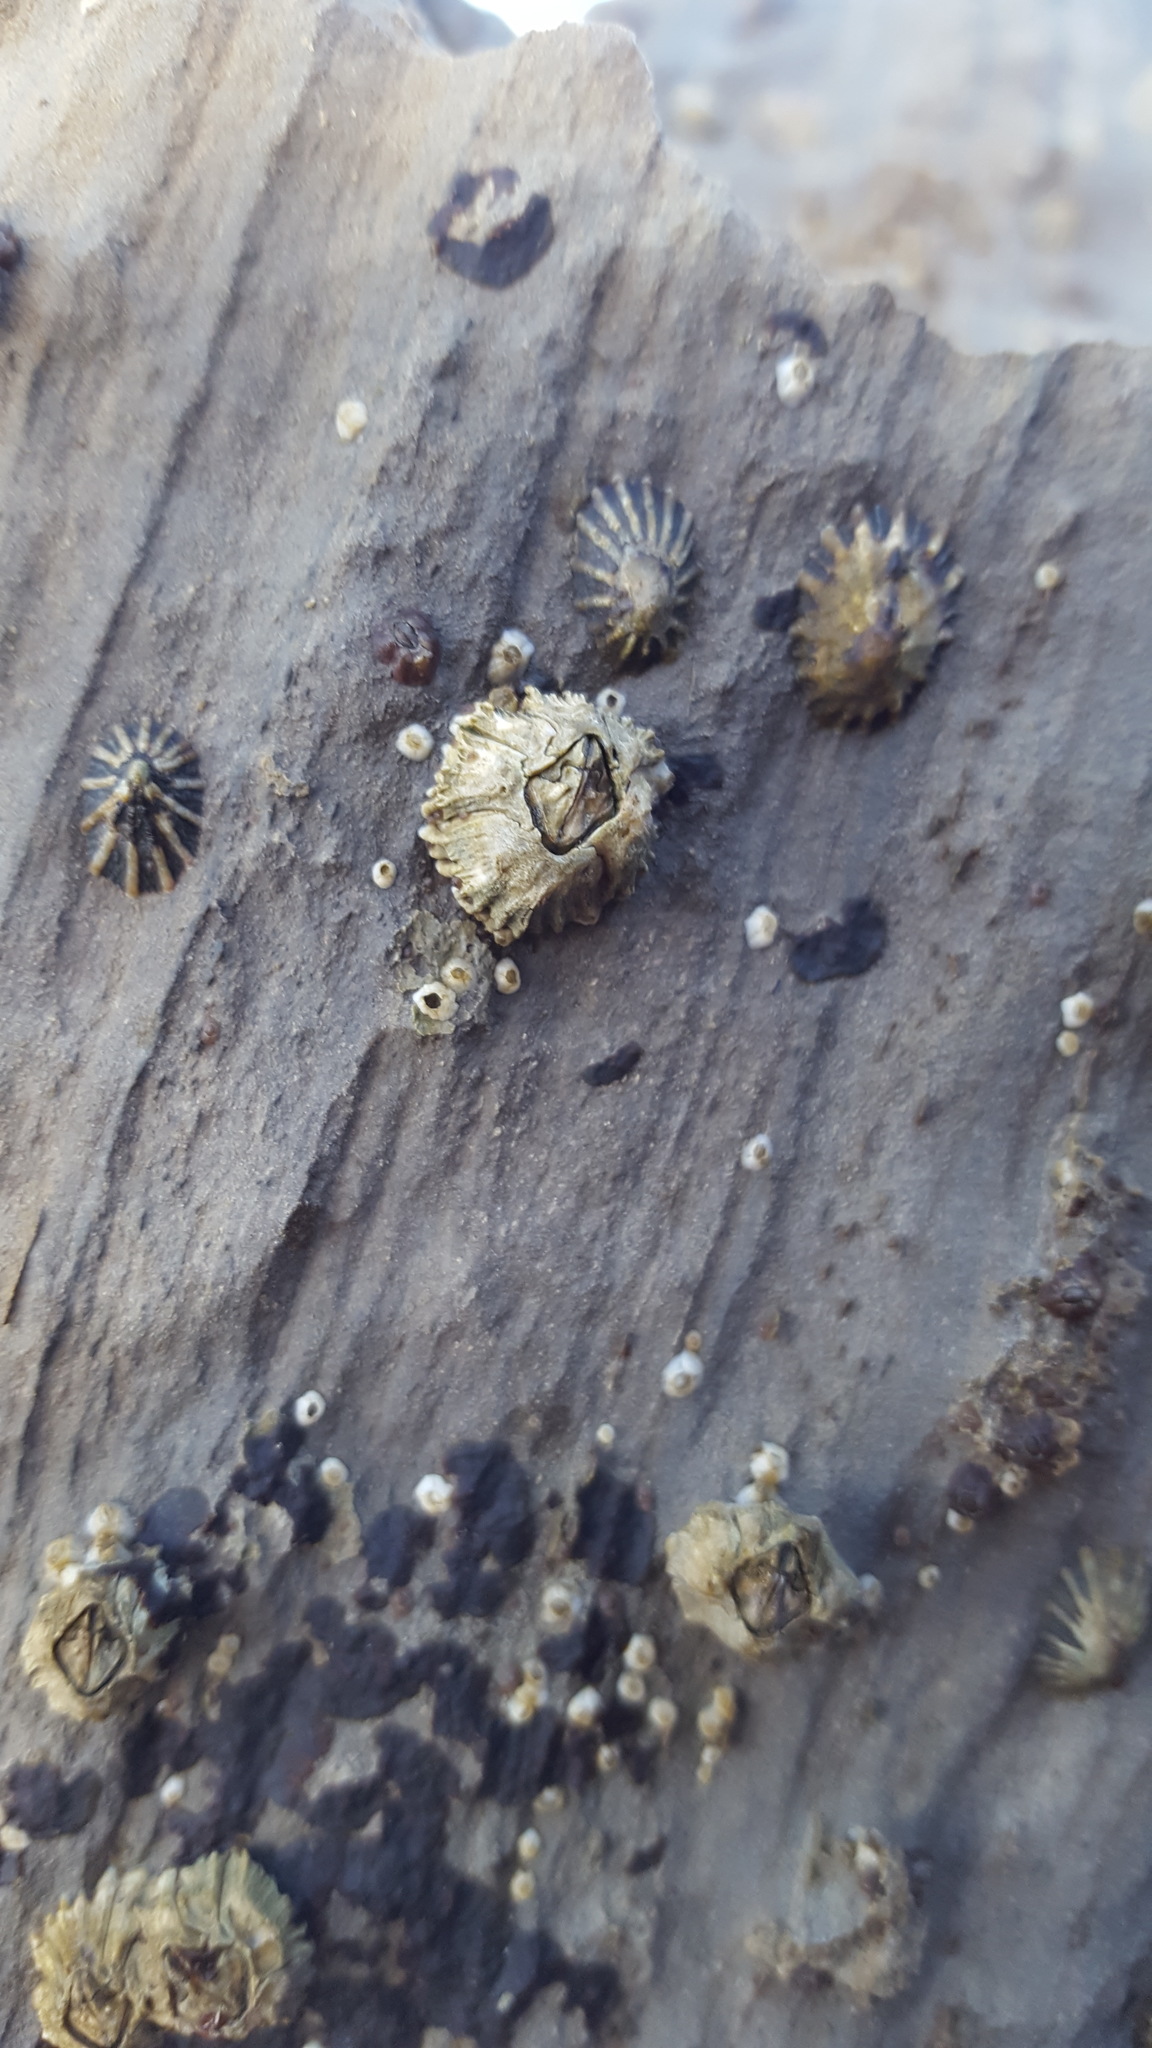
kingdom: Animalia
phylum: Arthropoda
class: Maxillopoda
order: Sessilia
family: Balanidae
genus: Balanus
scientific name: Balanus glandula
